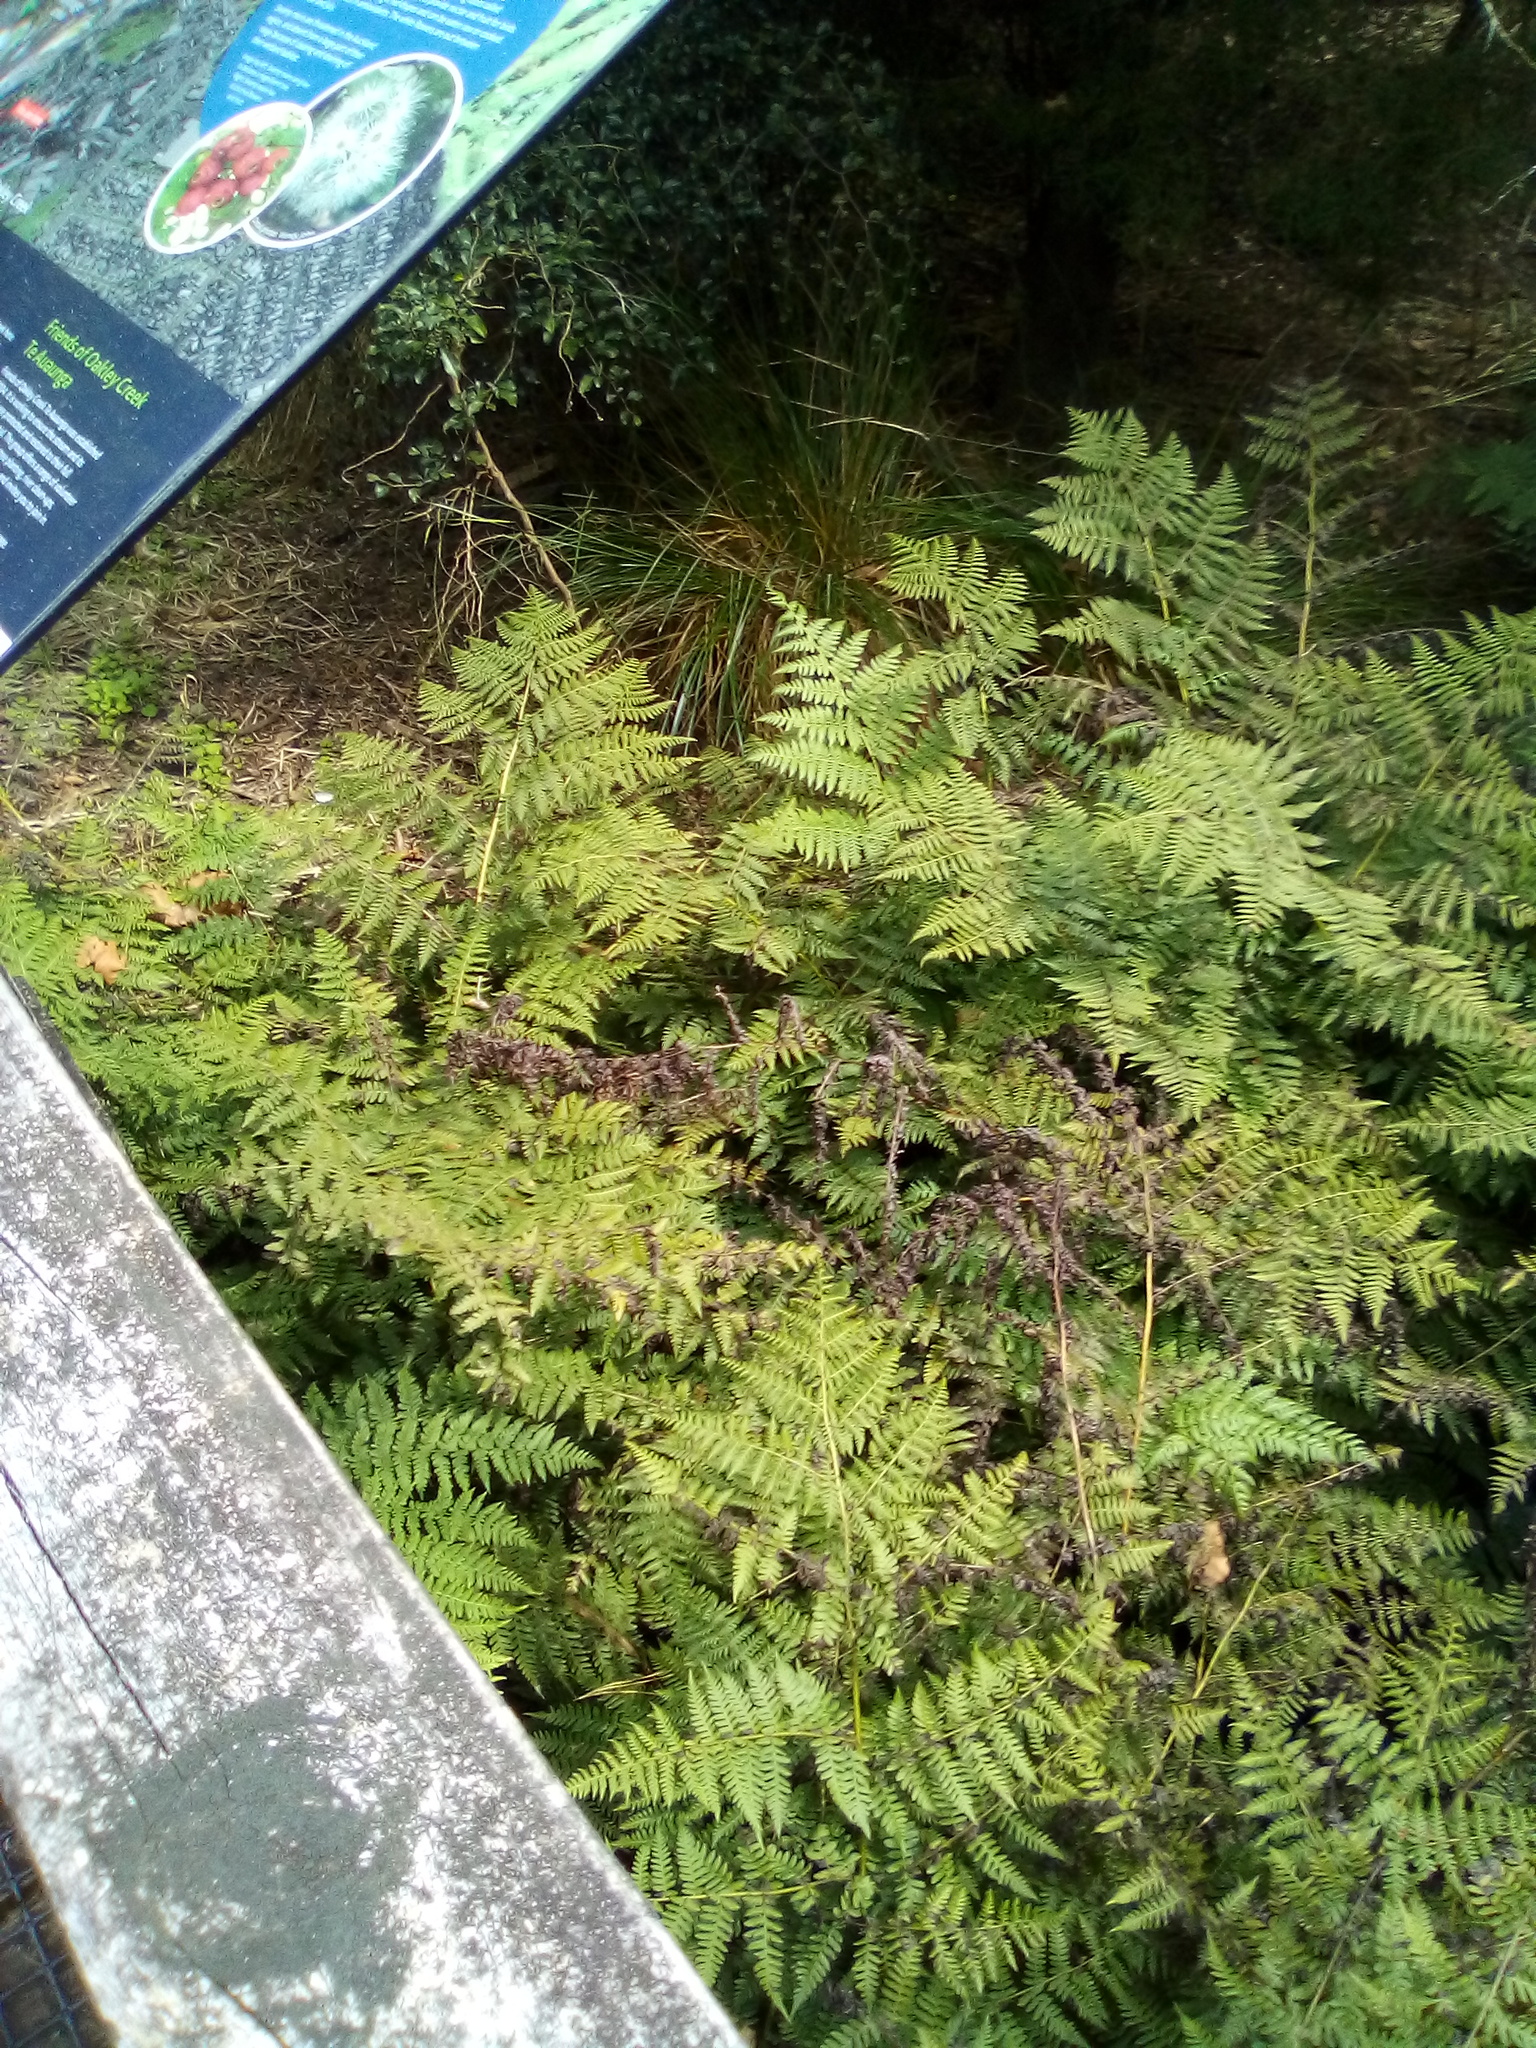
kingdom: Plantae
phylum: Tracheophyta
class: Polypodiopsida
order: Polypodiales
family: Athyriaceae
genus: Diplazium
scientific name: Diplazium australe
